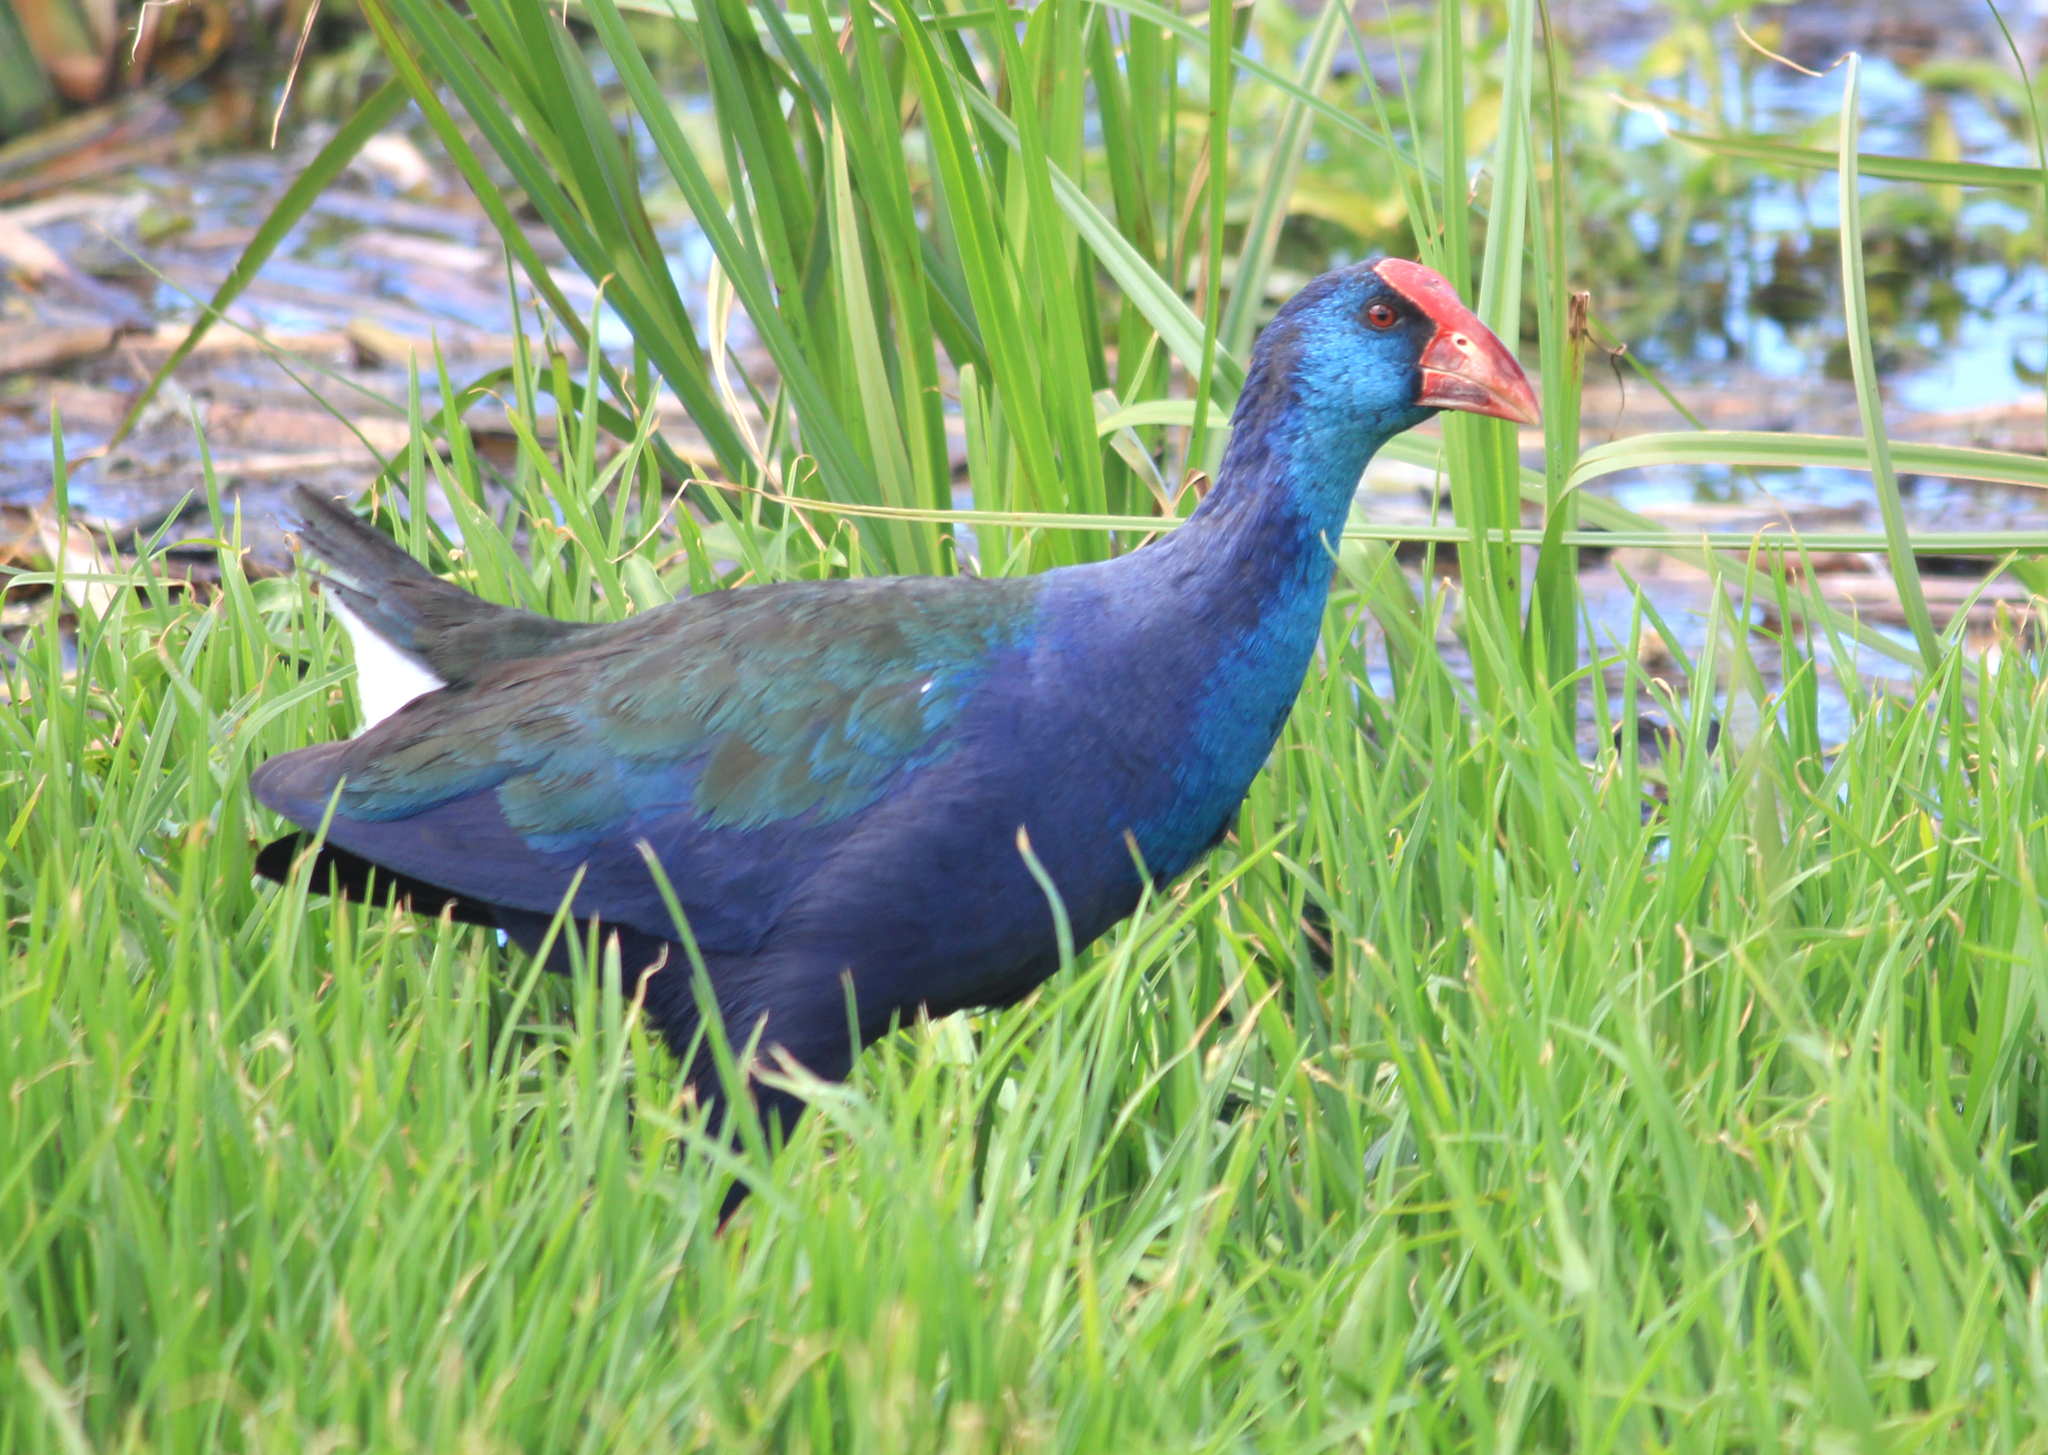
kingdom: Animalia
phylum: Chordata
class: Aves
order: Gruiformes
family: Rallidae
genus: Porphyrio
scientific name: Porphyrio porphyrio
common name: Purple swamphen
